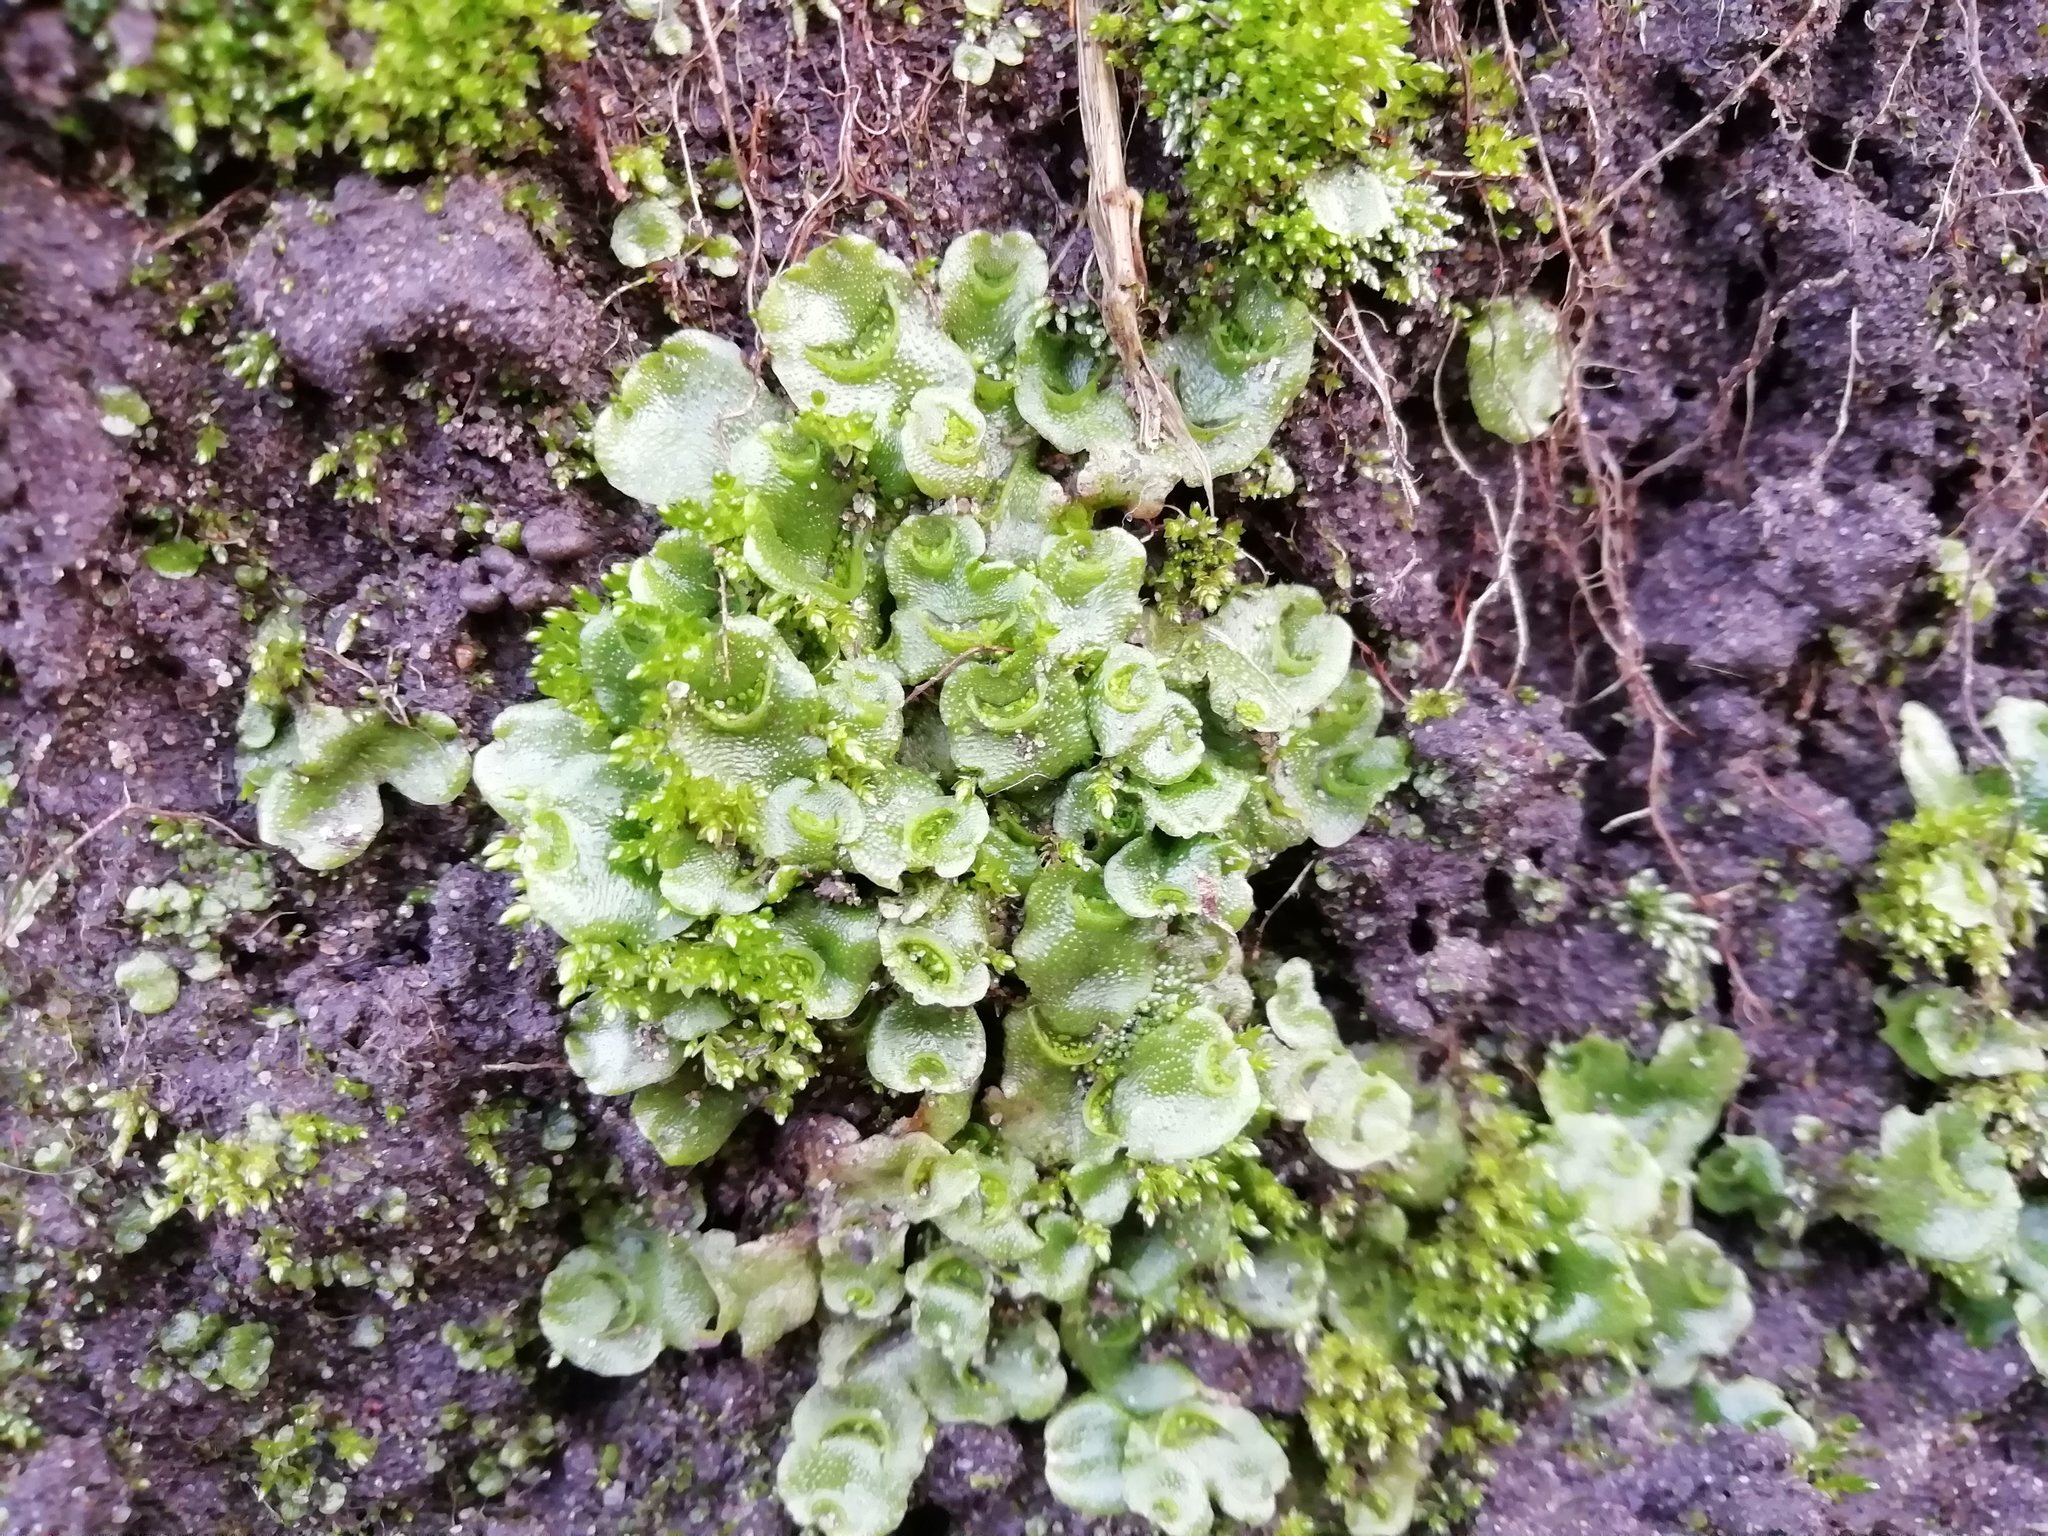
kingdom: Plantae
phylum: Marchantiophyta
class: Marchantiopsida
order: Lunulariales
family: Lunulariaceae
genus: Lunularia
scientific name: Lunularia cruciata
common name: Crescent-cup liverwort
